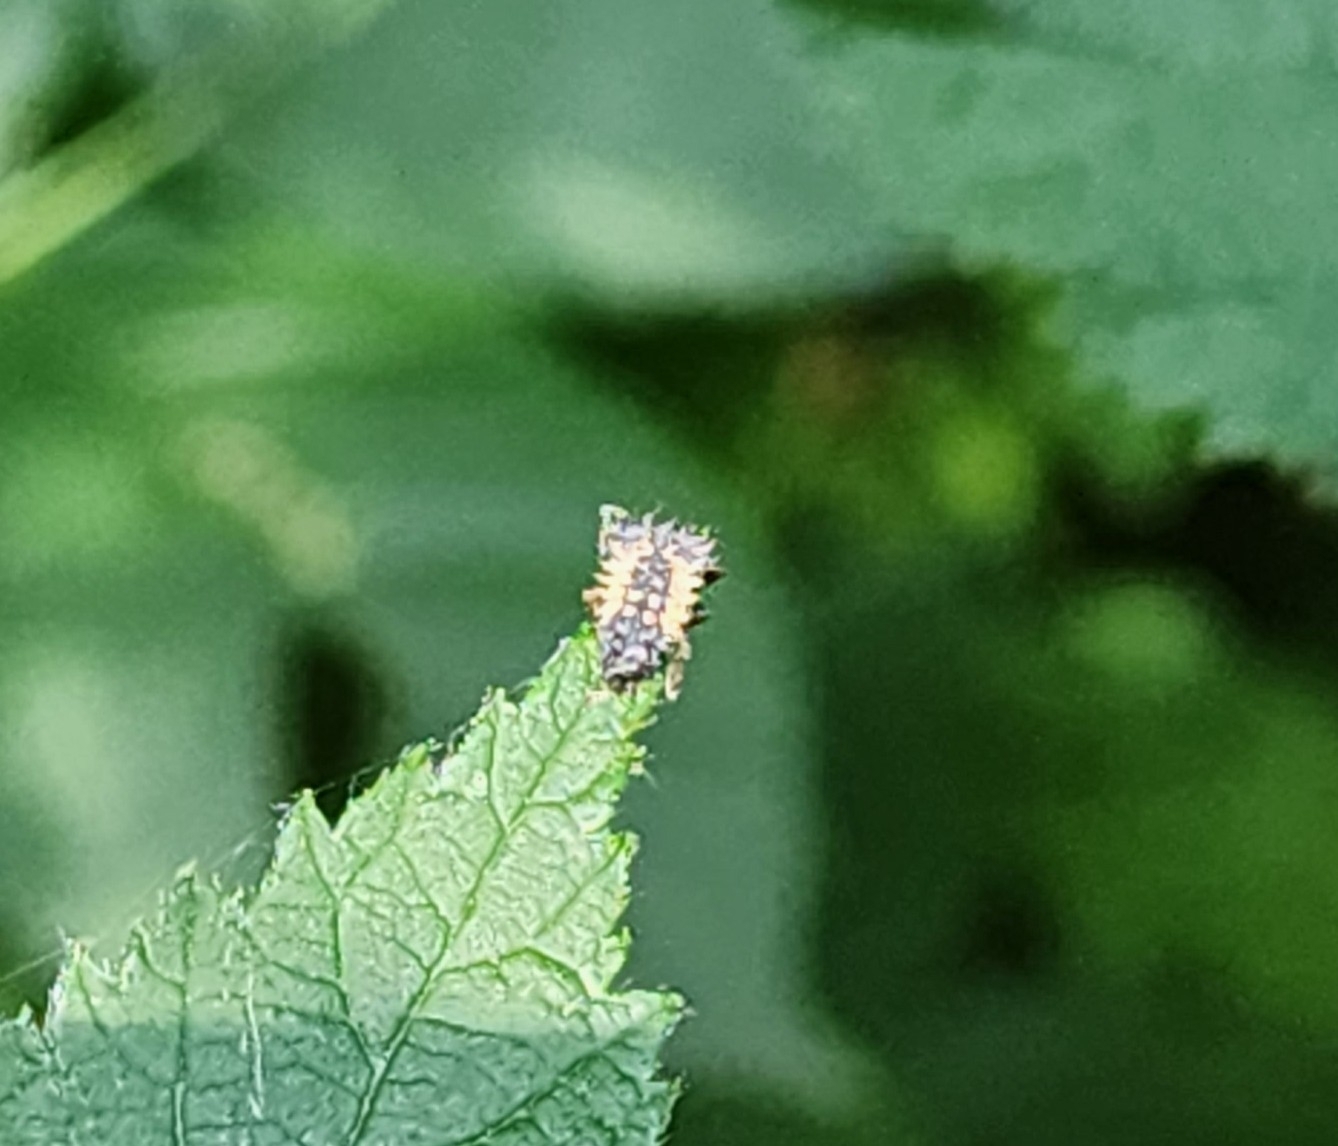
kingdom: Animalia
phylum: Arthropoda
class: Insecta
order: Coleoptera
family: Coccinellidae
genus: Harmonia
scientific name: Harmonia axyridis
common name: Harlequin ladybird
